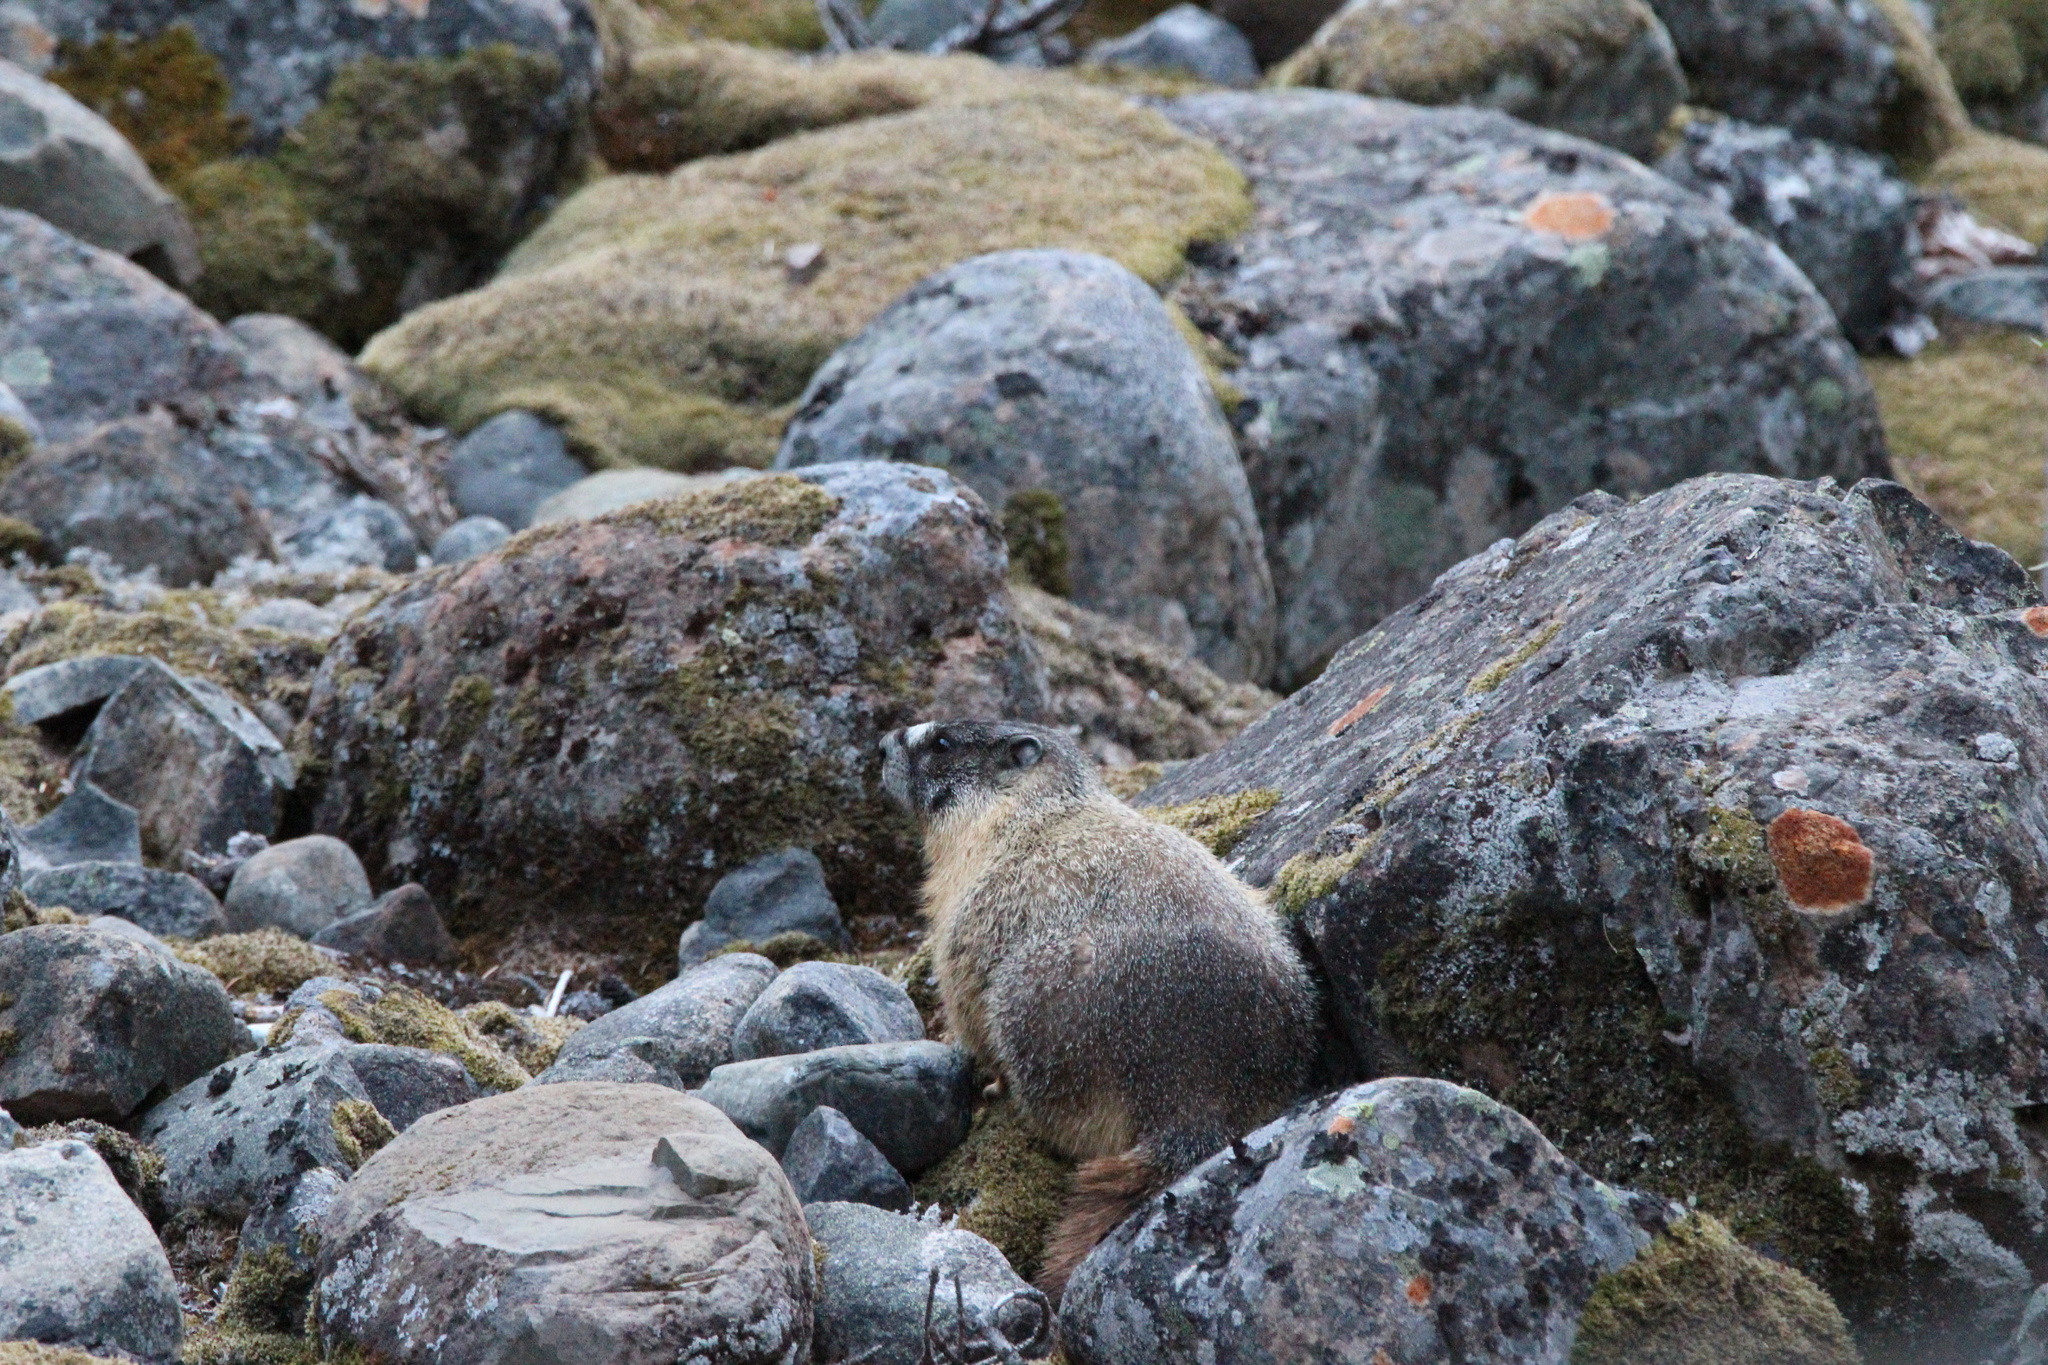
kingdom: Animalia
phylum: Chordata
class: Mammalia
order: Rodentia
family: Sciuridae
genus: Marmota
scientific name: Marmota flaviventris
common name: Yellow-bellied marmot
